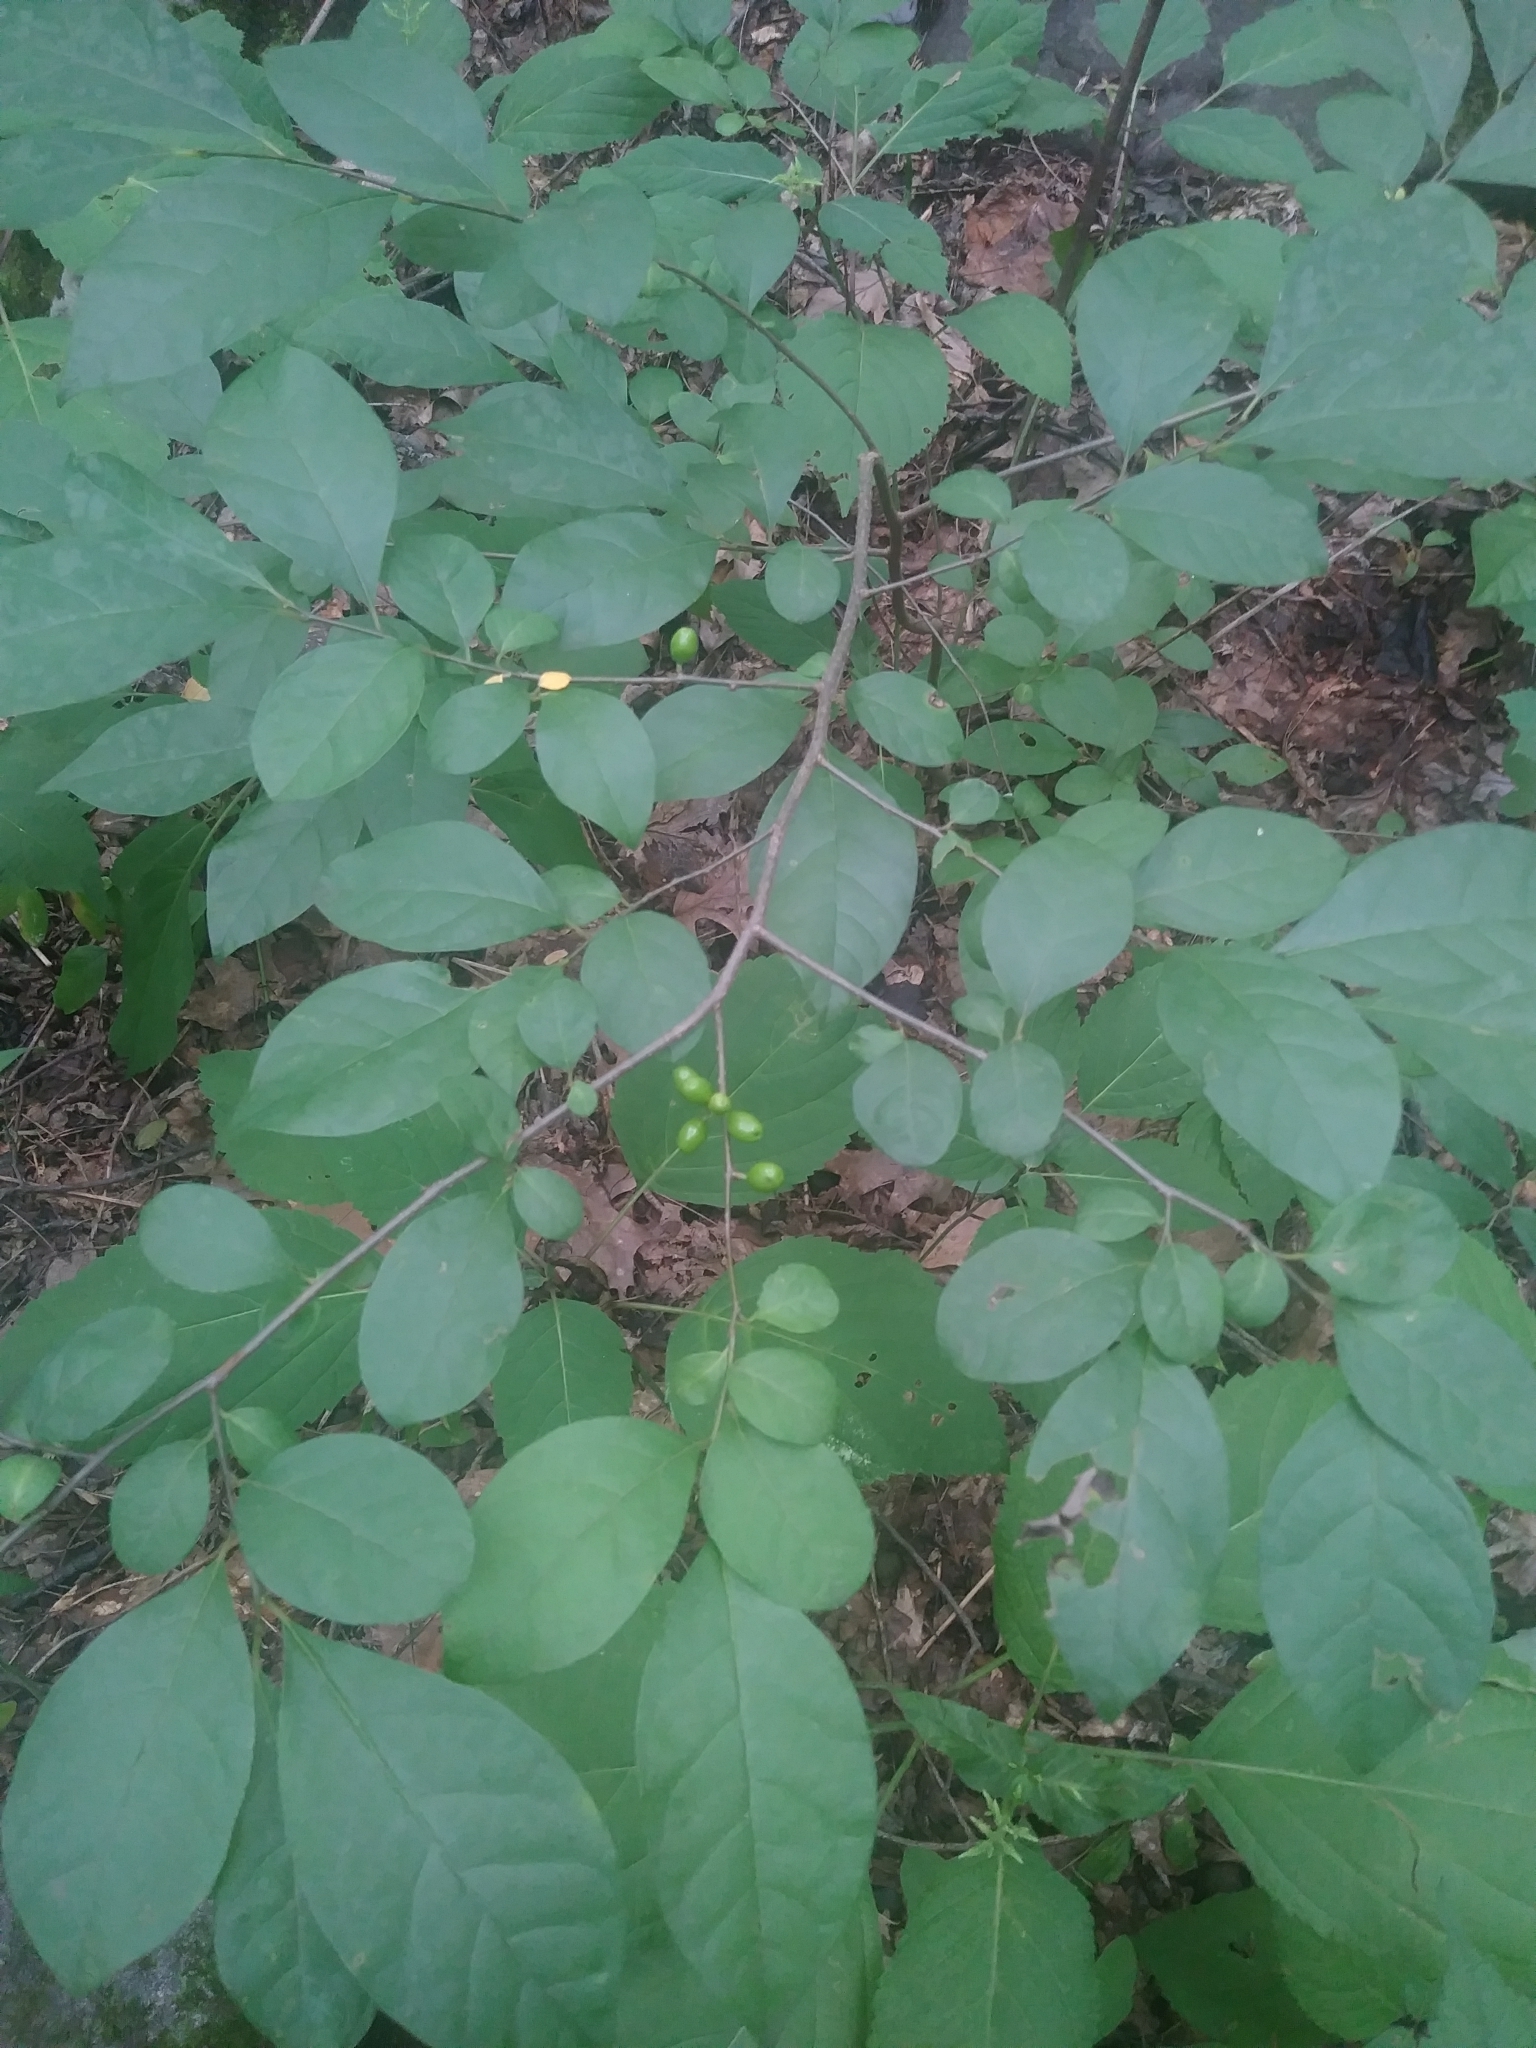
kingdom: Plantae
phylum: Tracheophyta
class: Magnoliopsida
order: Laurales
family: Lauraceae
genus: Lindera
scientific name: Lindera benzoin
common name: Spicebush
